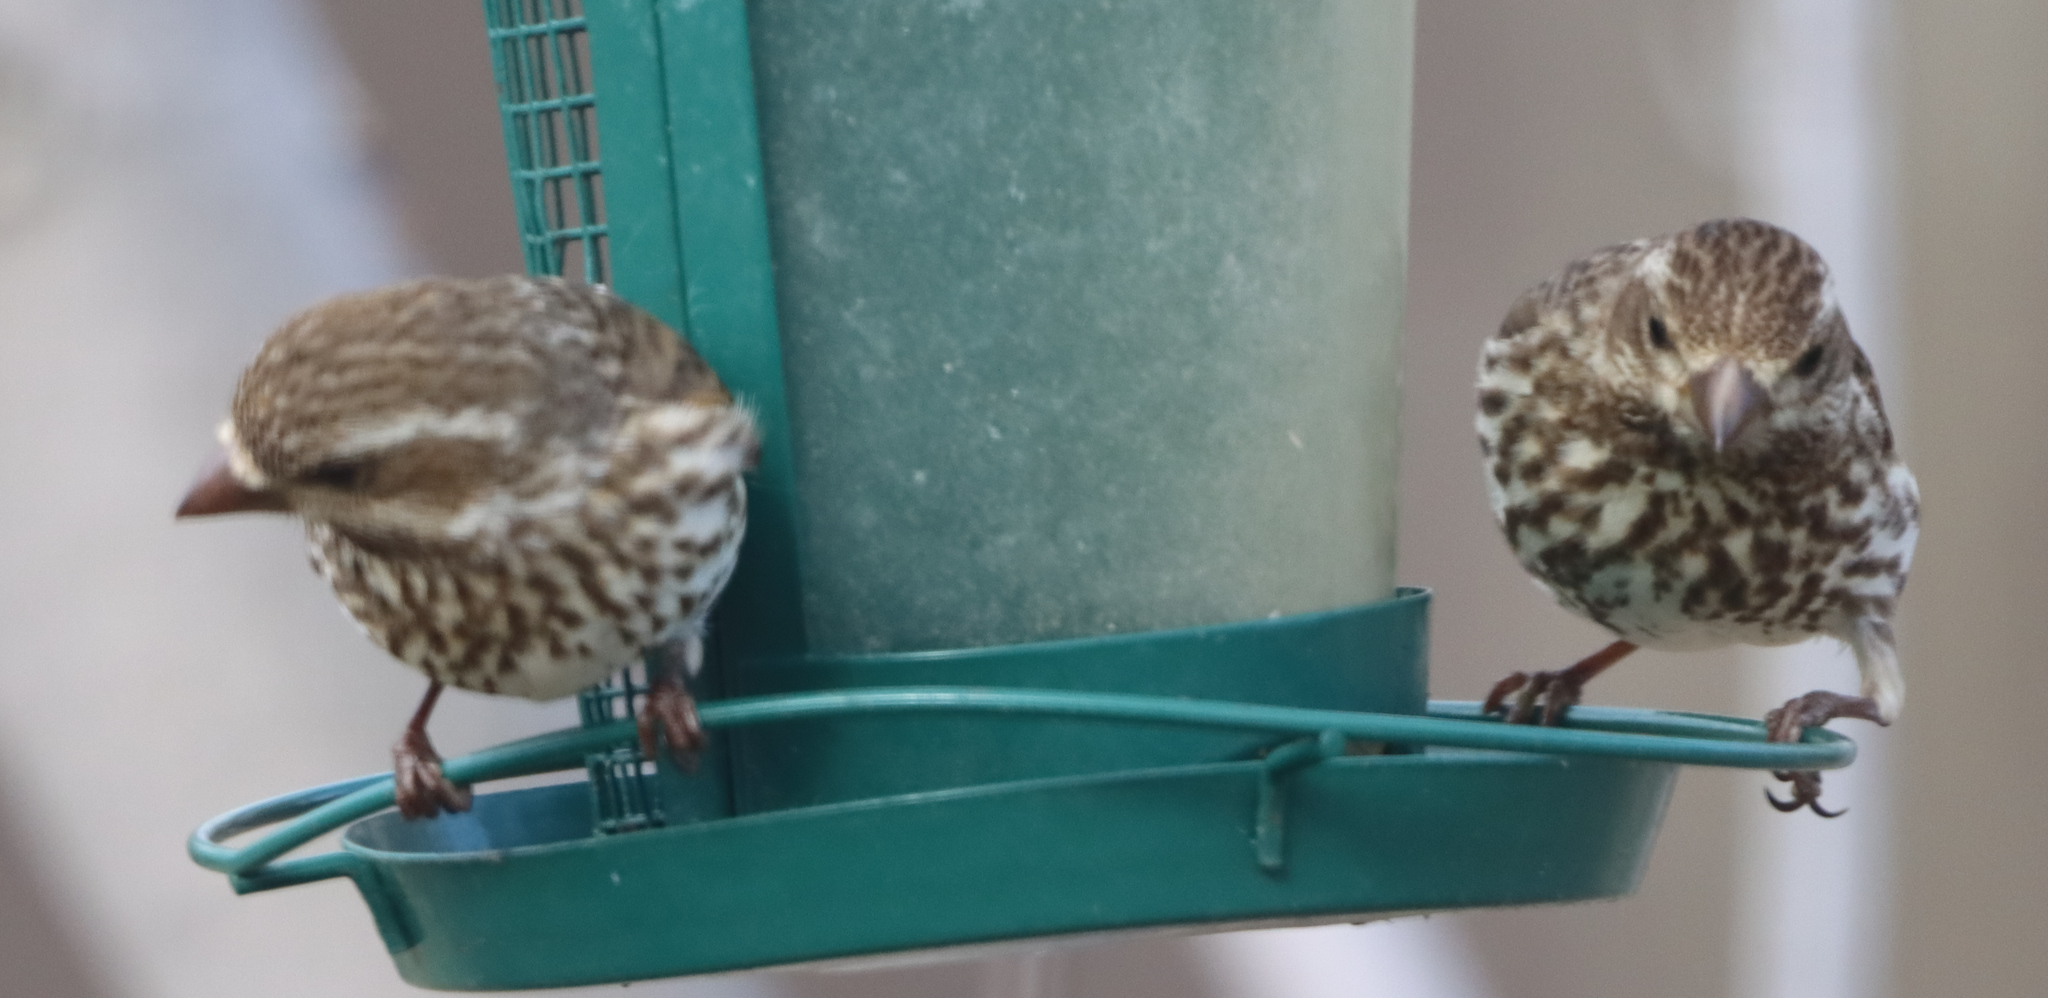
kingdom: Animalia
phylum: Chordata
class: Aves
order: Passeriformes
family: Fringillidae
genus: Haemorhous
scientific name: Haemorhous purpureus
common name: Purple finch
